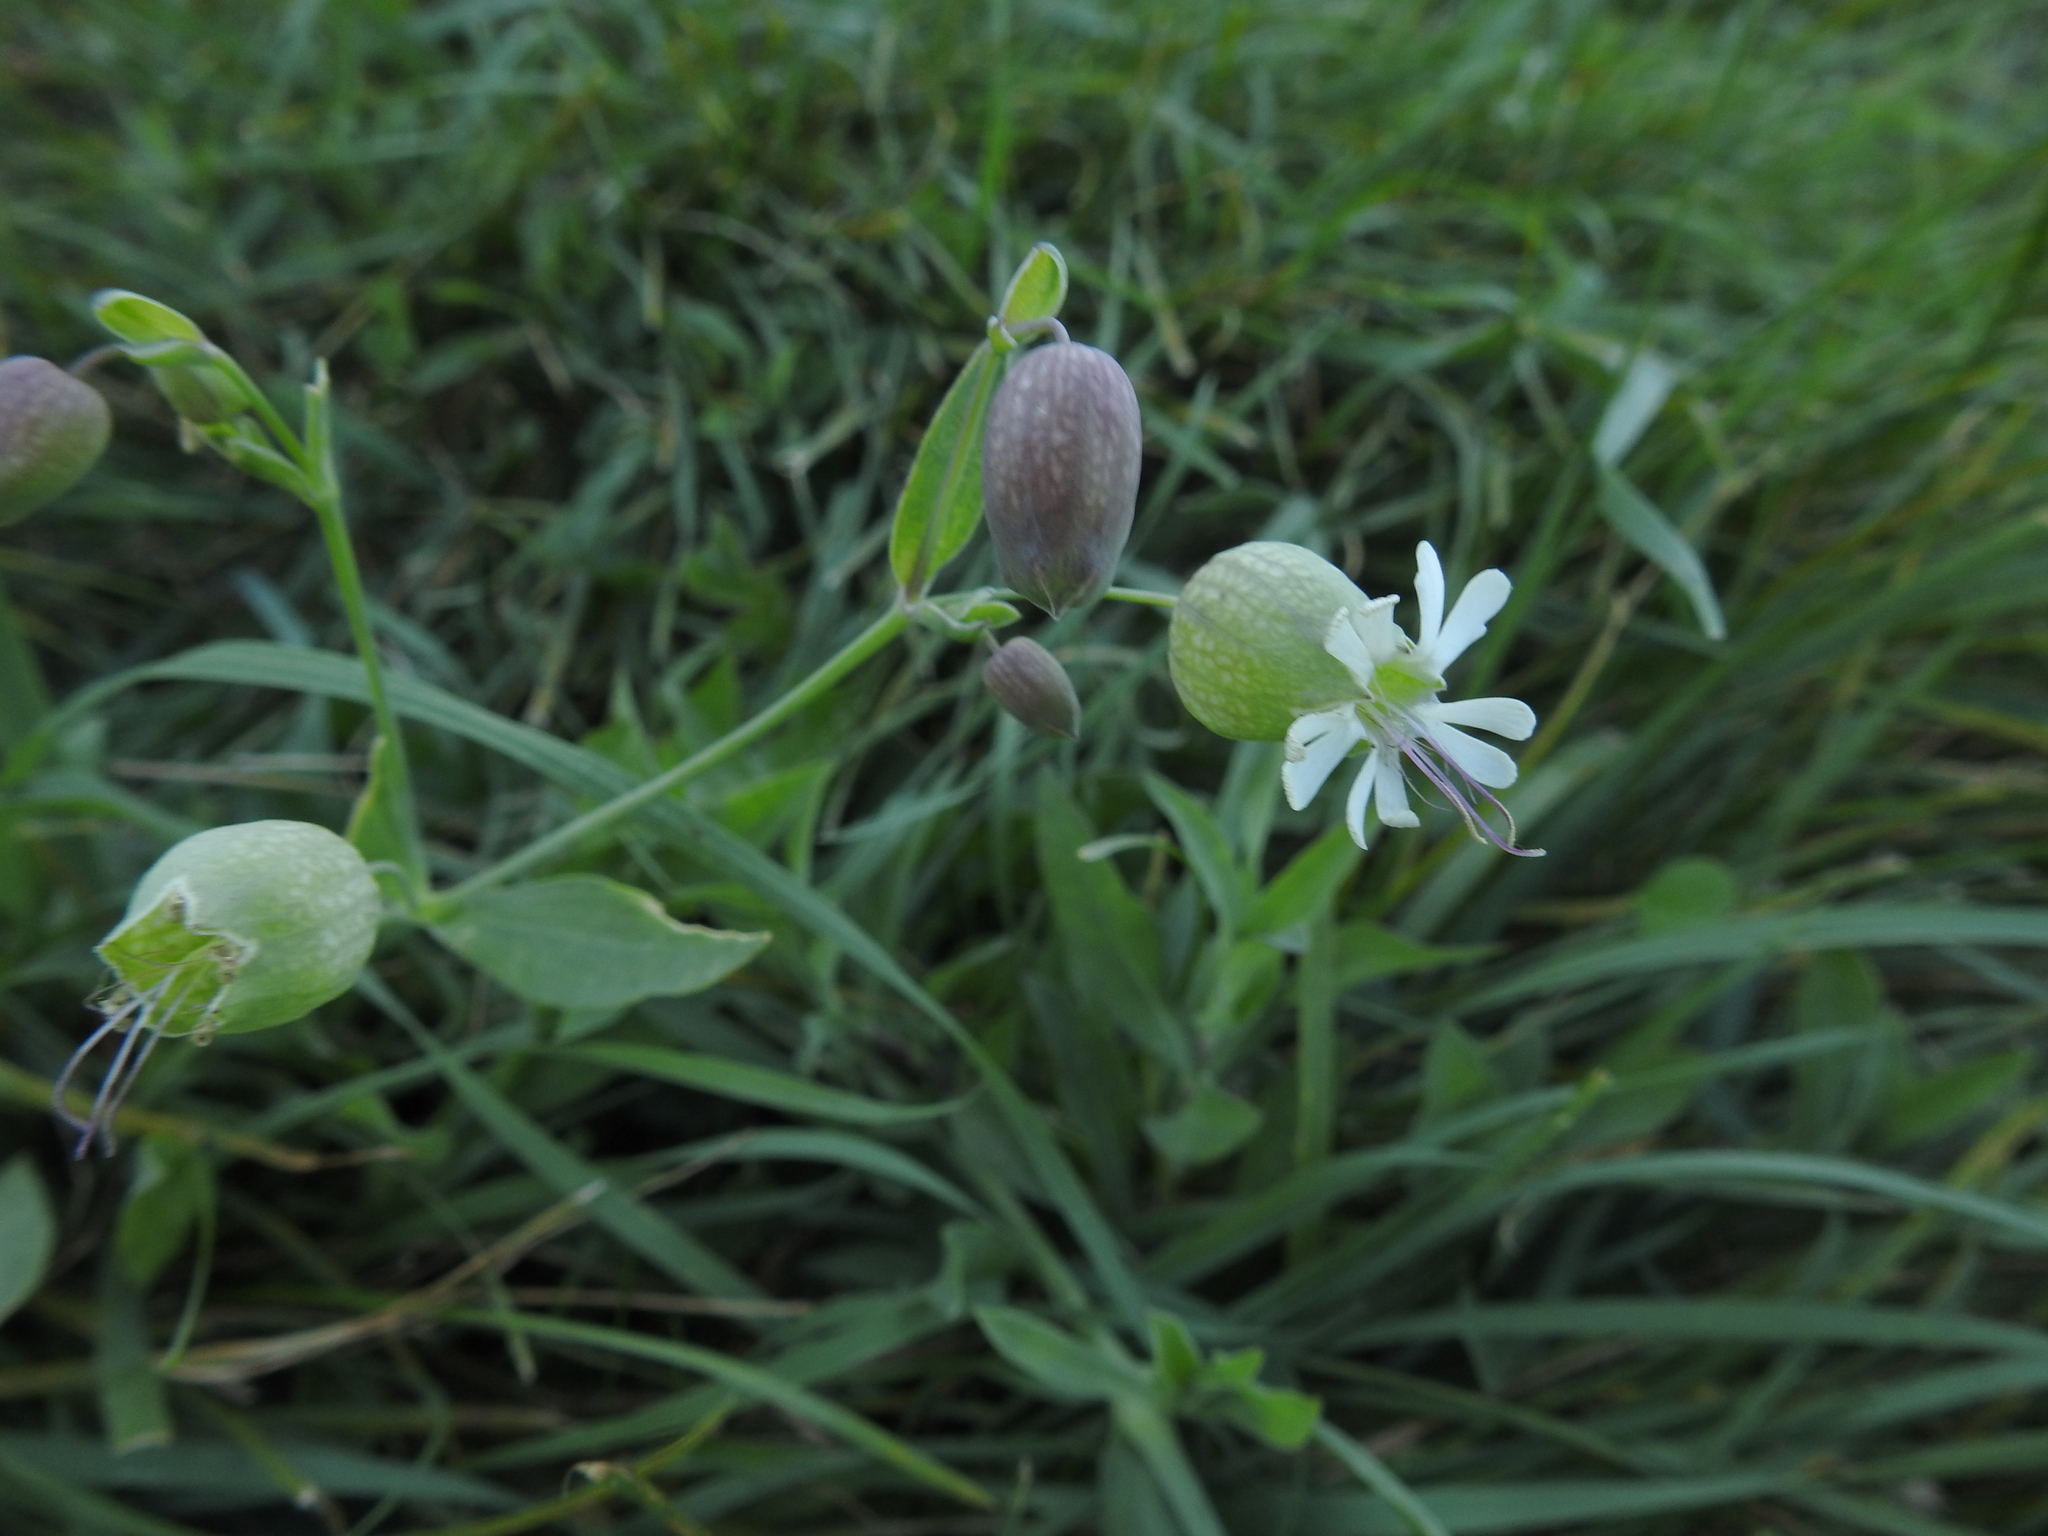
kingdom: Plantae
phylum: Tracheophyta
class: Magnoliopsida
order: Caryophyllales
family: Caryophyllaceae
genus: Silene
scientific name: Silene vulgaris
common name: Bladder campion
